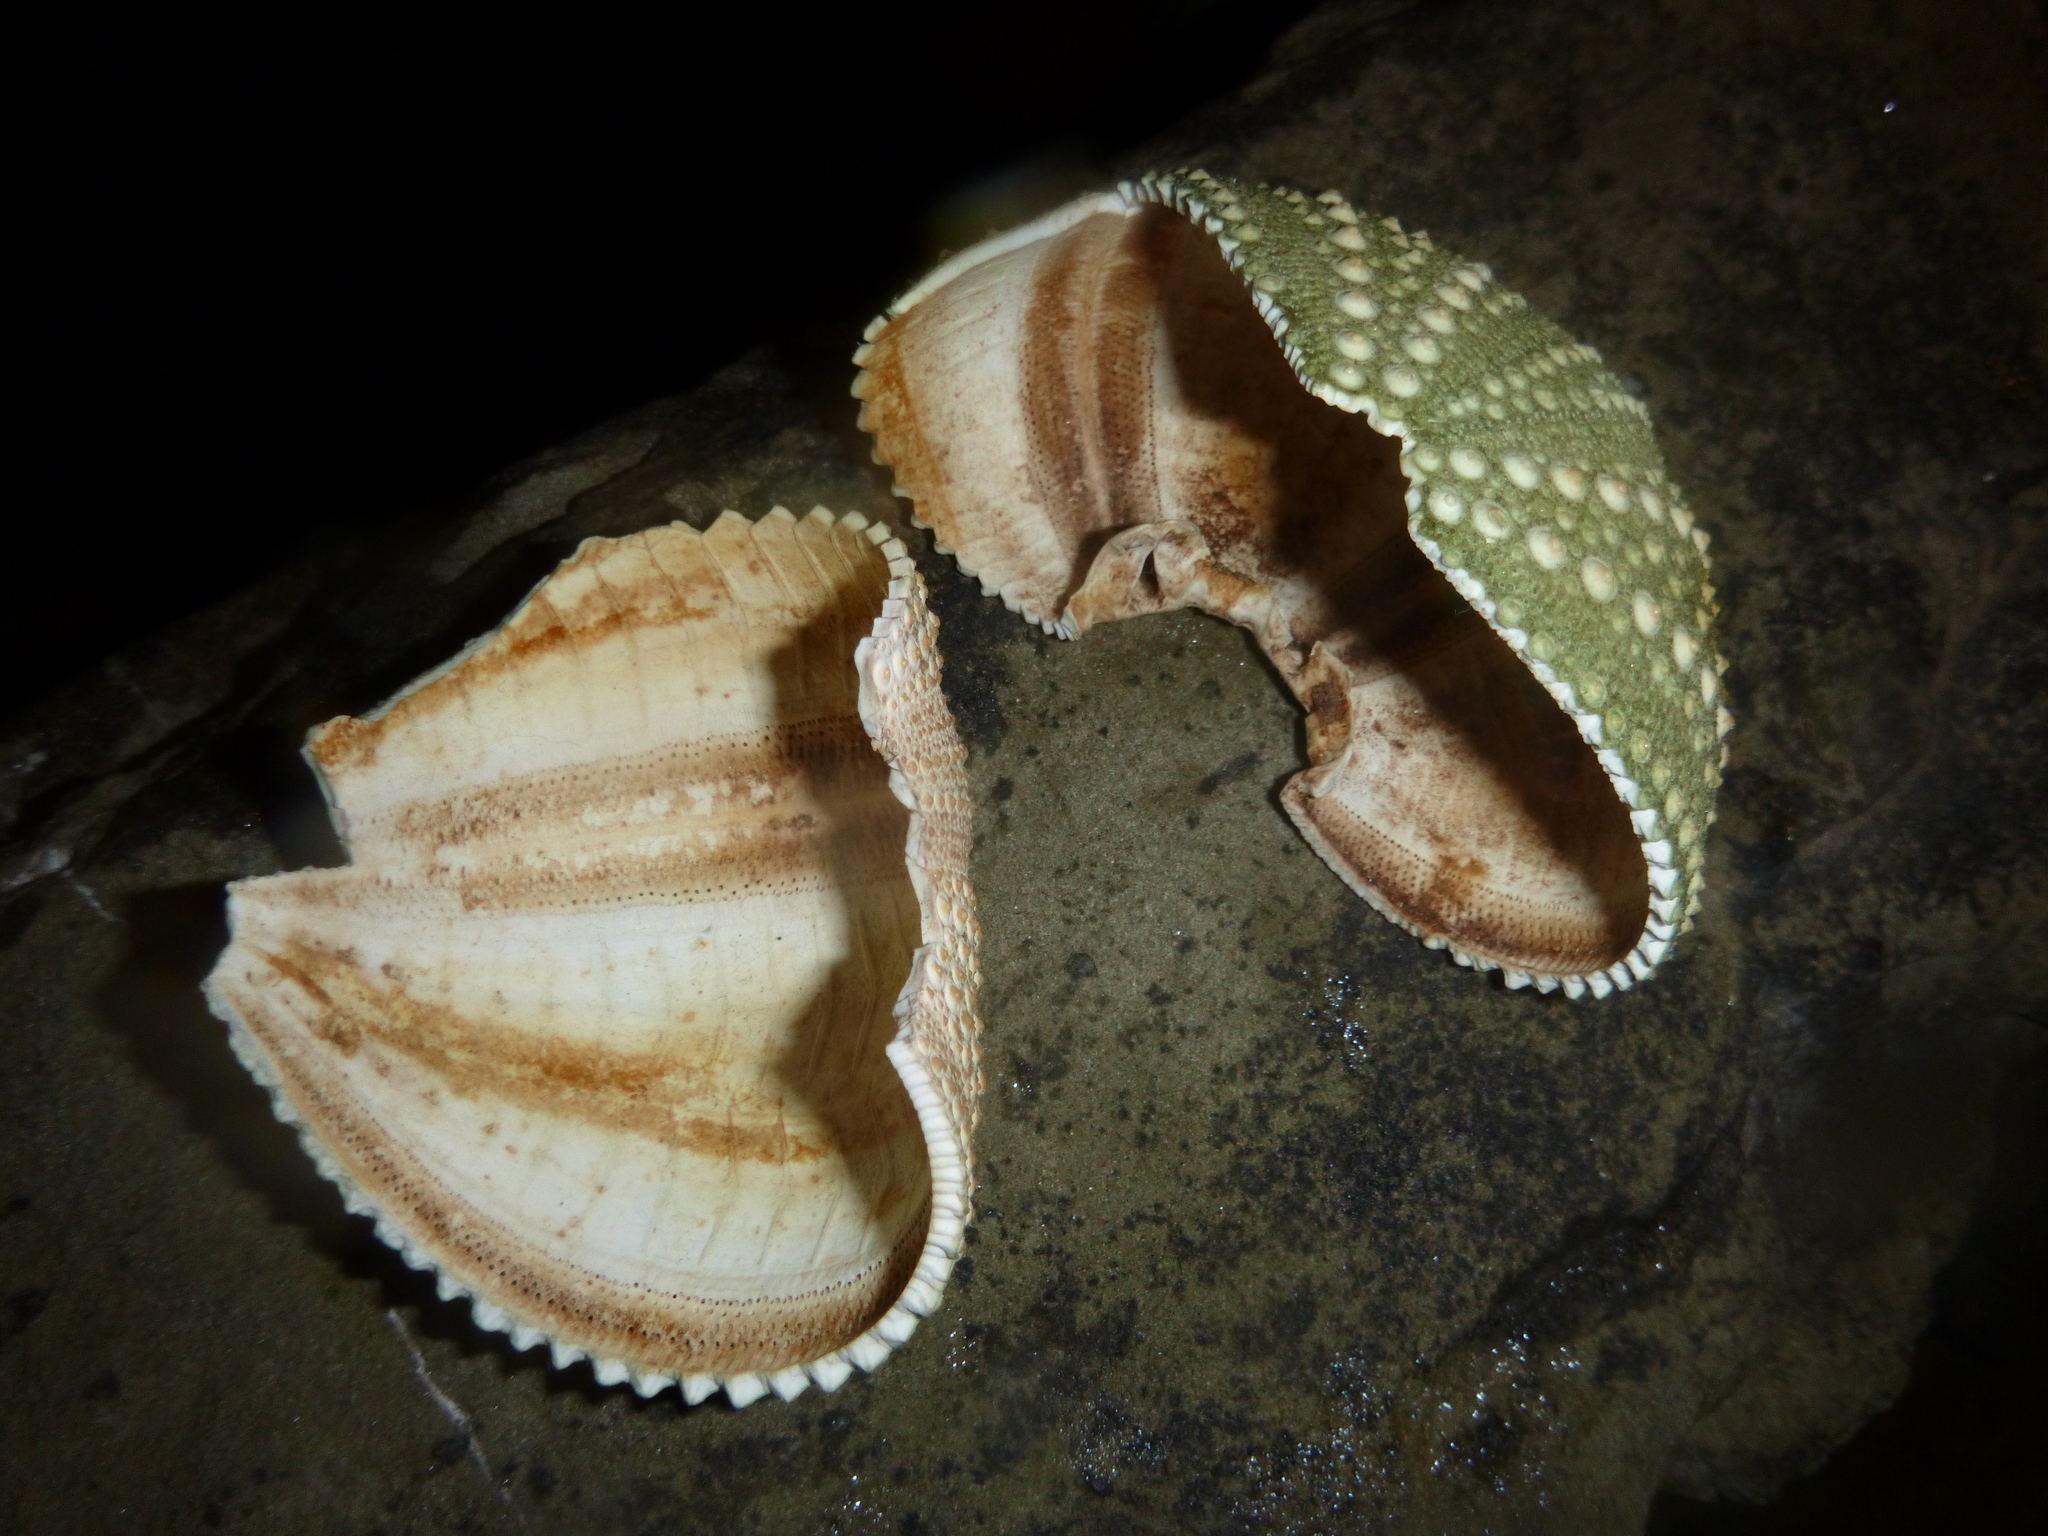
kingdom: Animalia
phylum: Echinodermata
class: Echinoidea
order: Camarodonta
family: Echinometridae
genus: Evechinus
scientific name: Evechinus chloroticus
